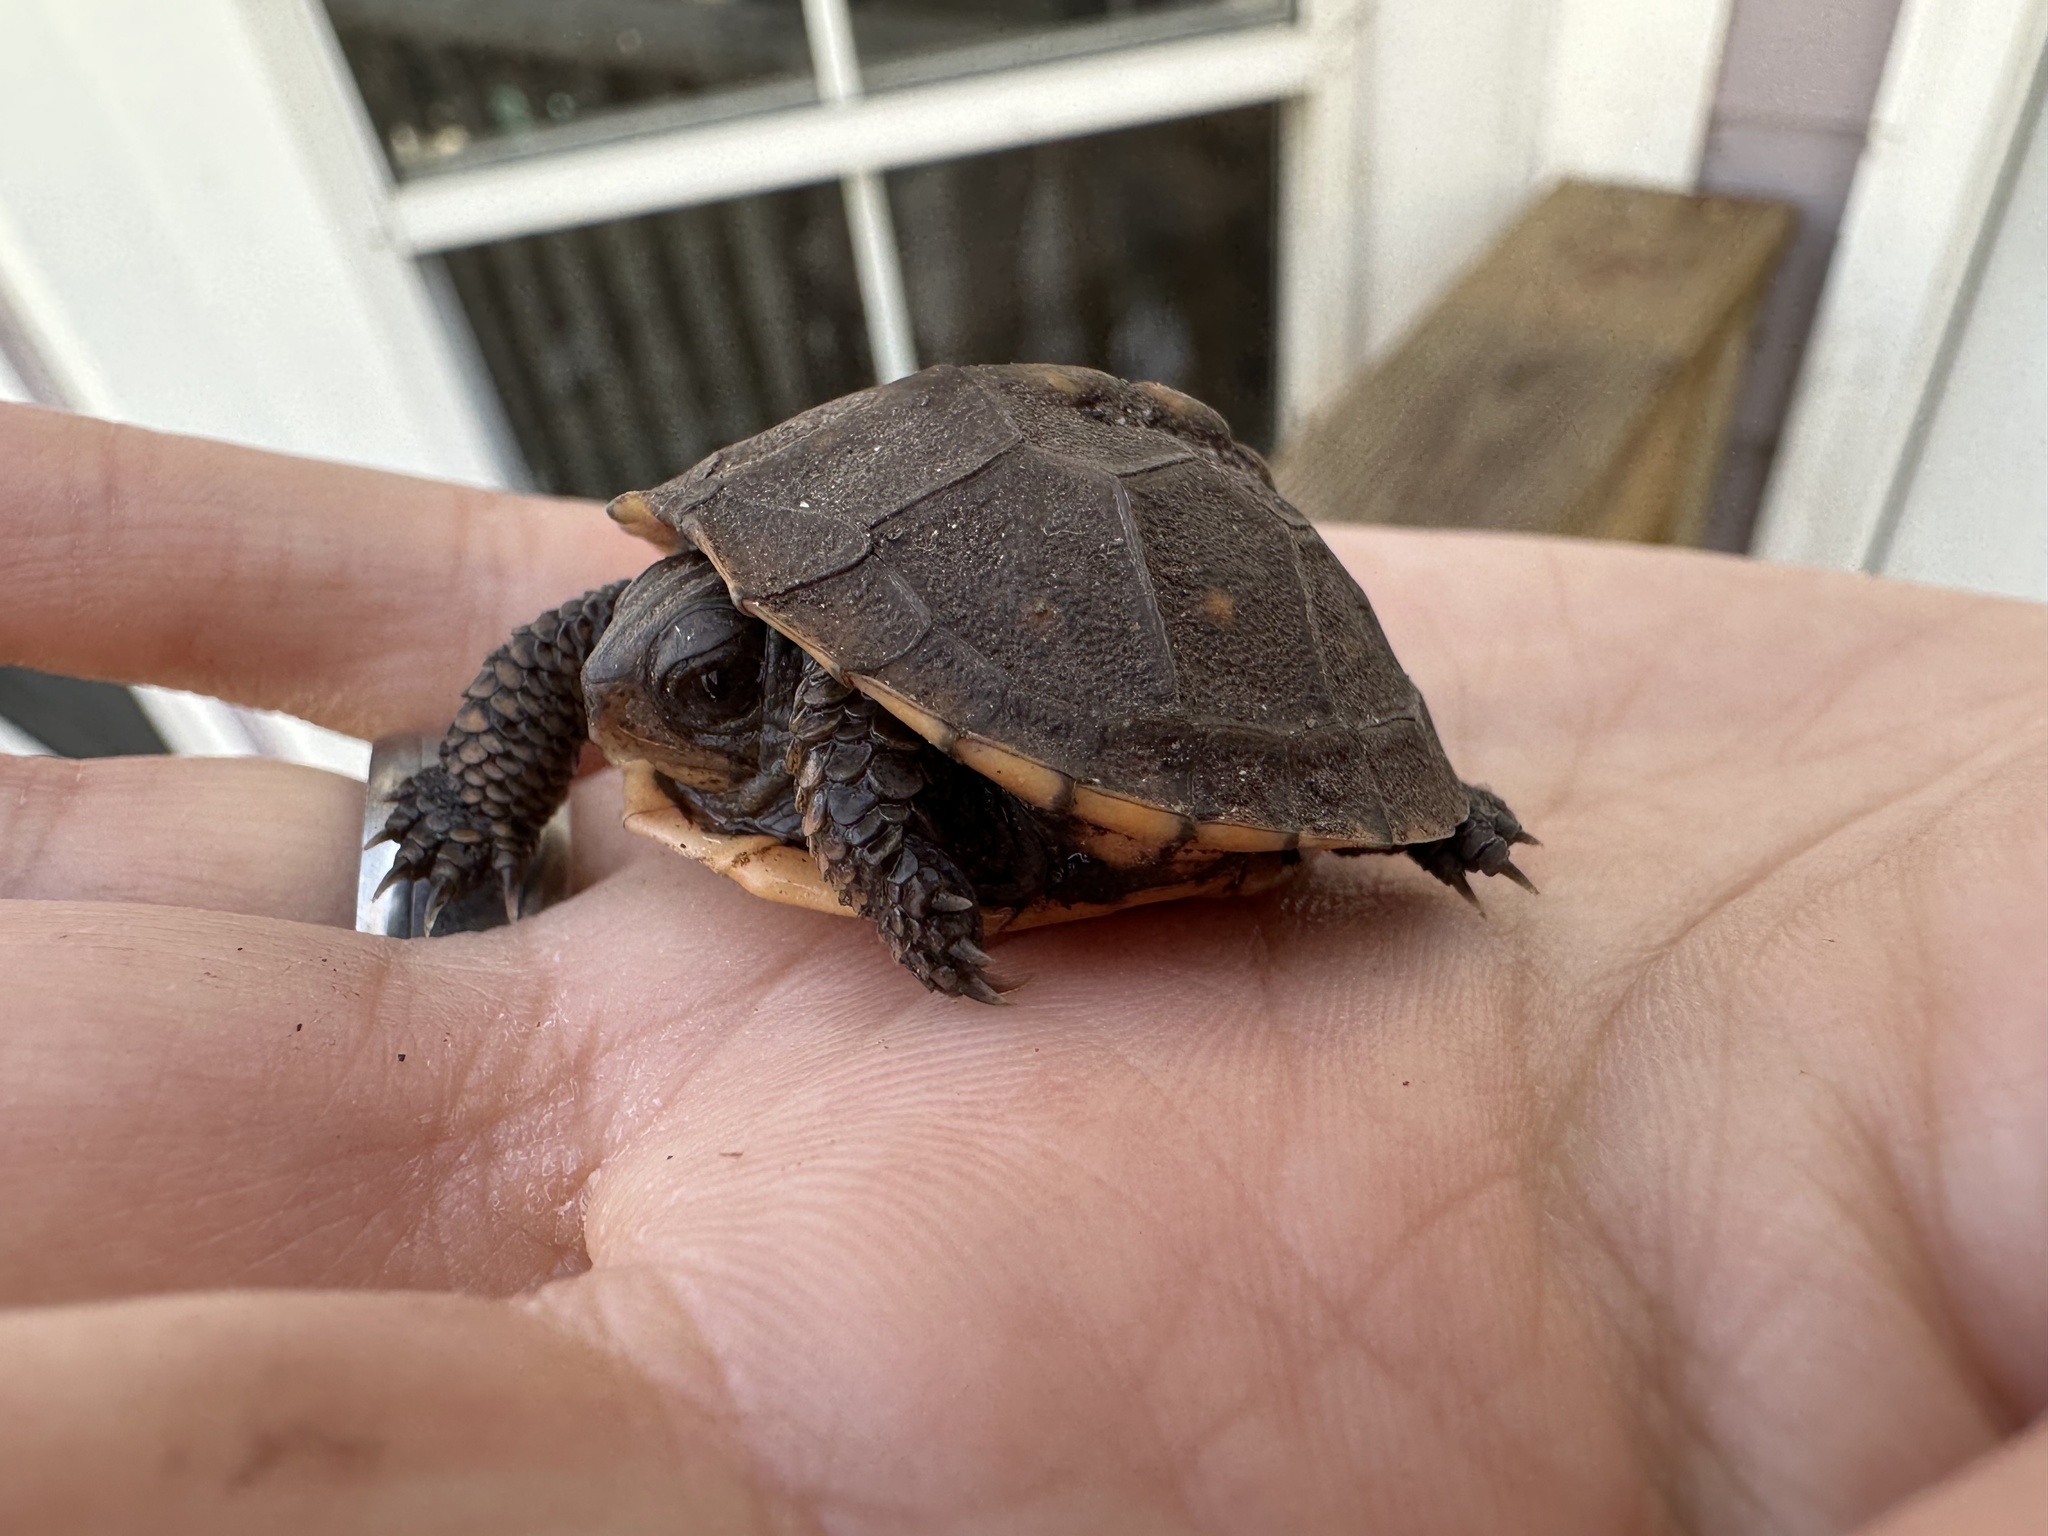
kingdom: Animalia
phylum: Chordata
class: Testudines
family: Emydidae
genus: Terrapene
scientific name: Terrapene carolina
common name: Common box turtle
